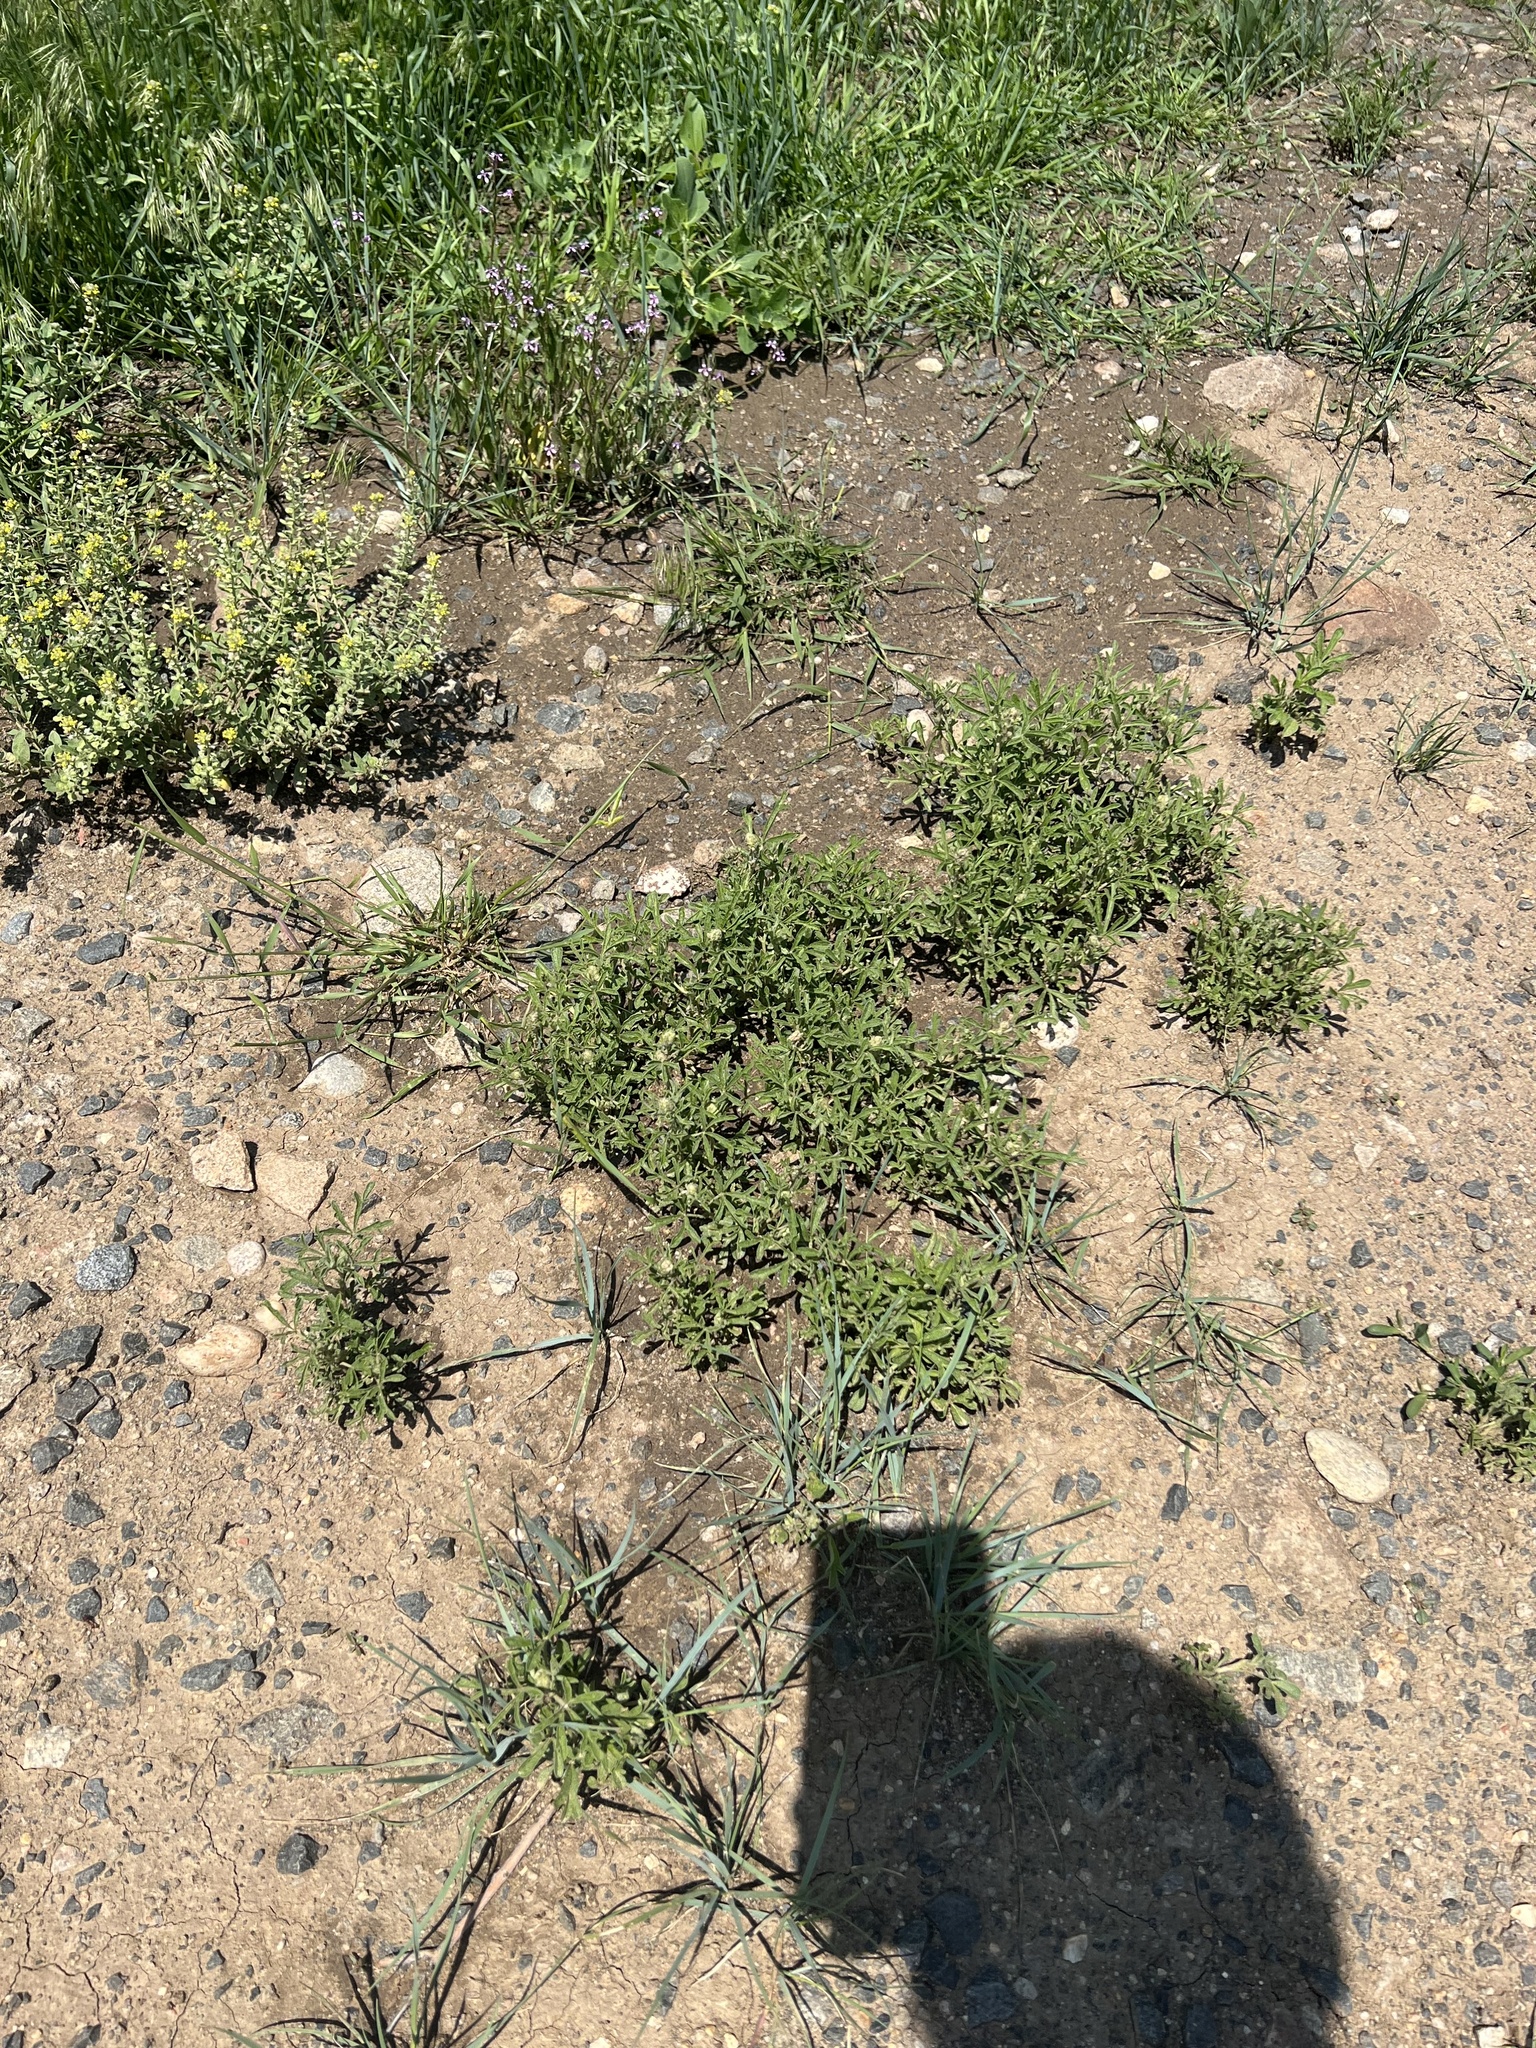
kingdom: Plantae
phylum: Tracheophyta
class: Magnoliopsida
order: Malvales
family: Malvaceae
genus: Sphaeralcea
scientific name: Sphaeralcea coccinea
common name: Moss-rose
